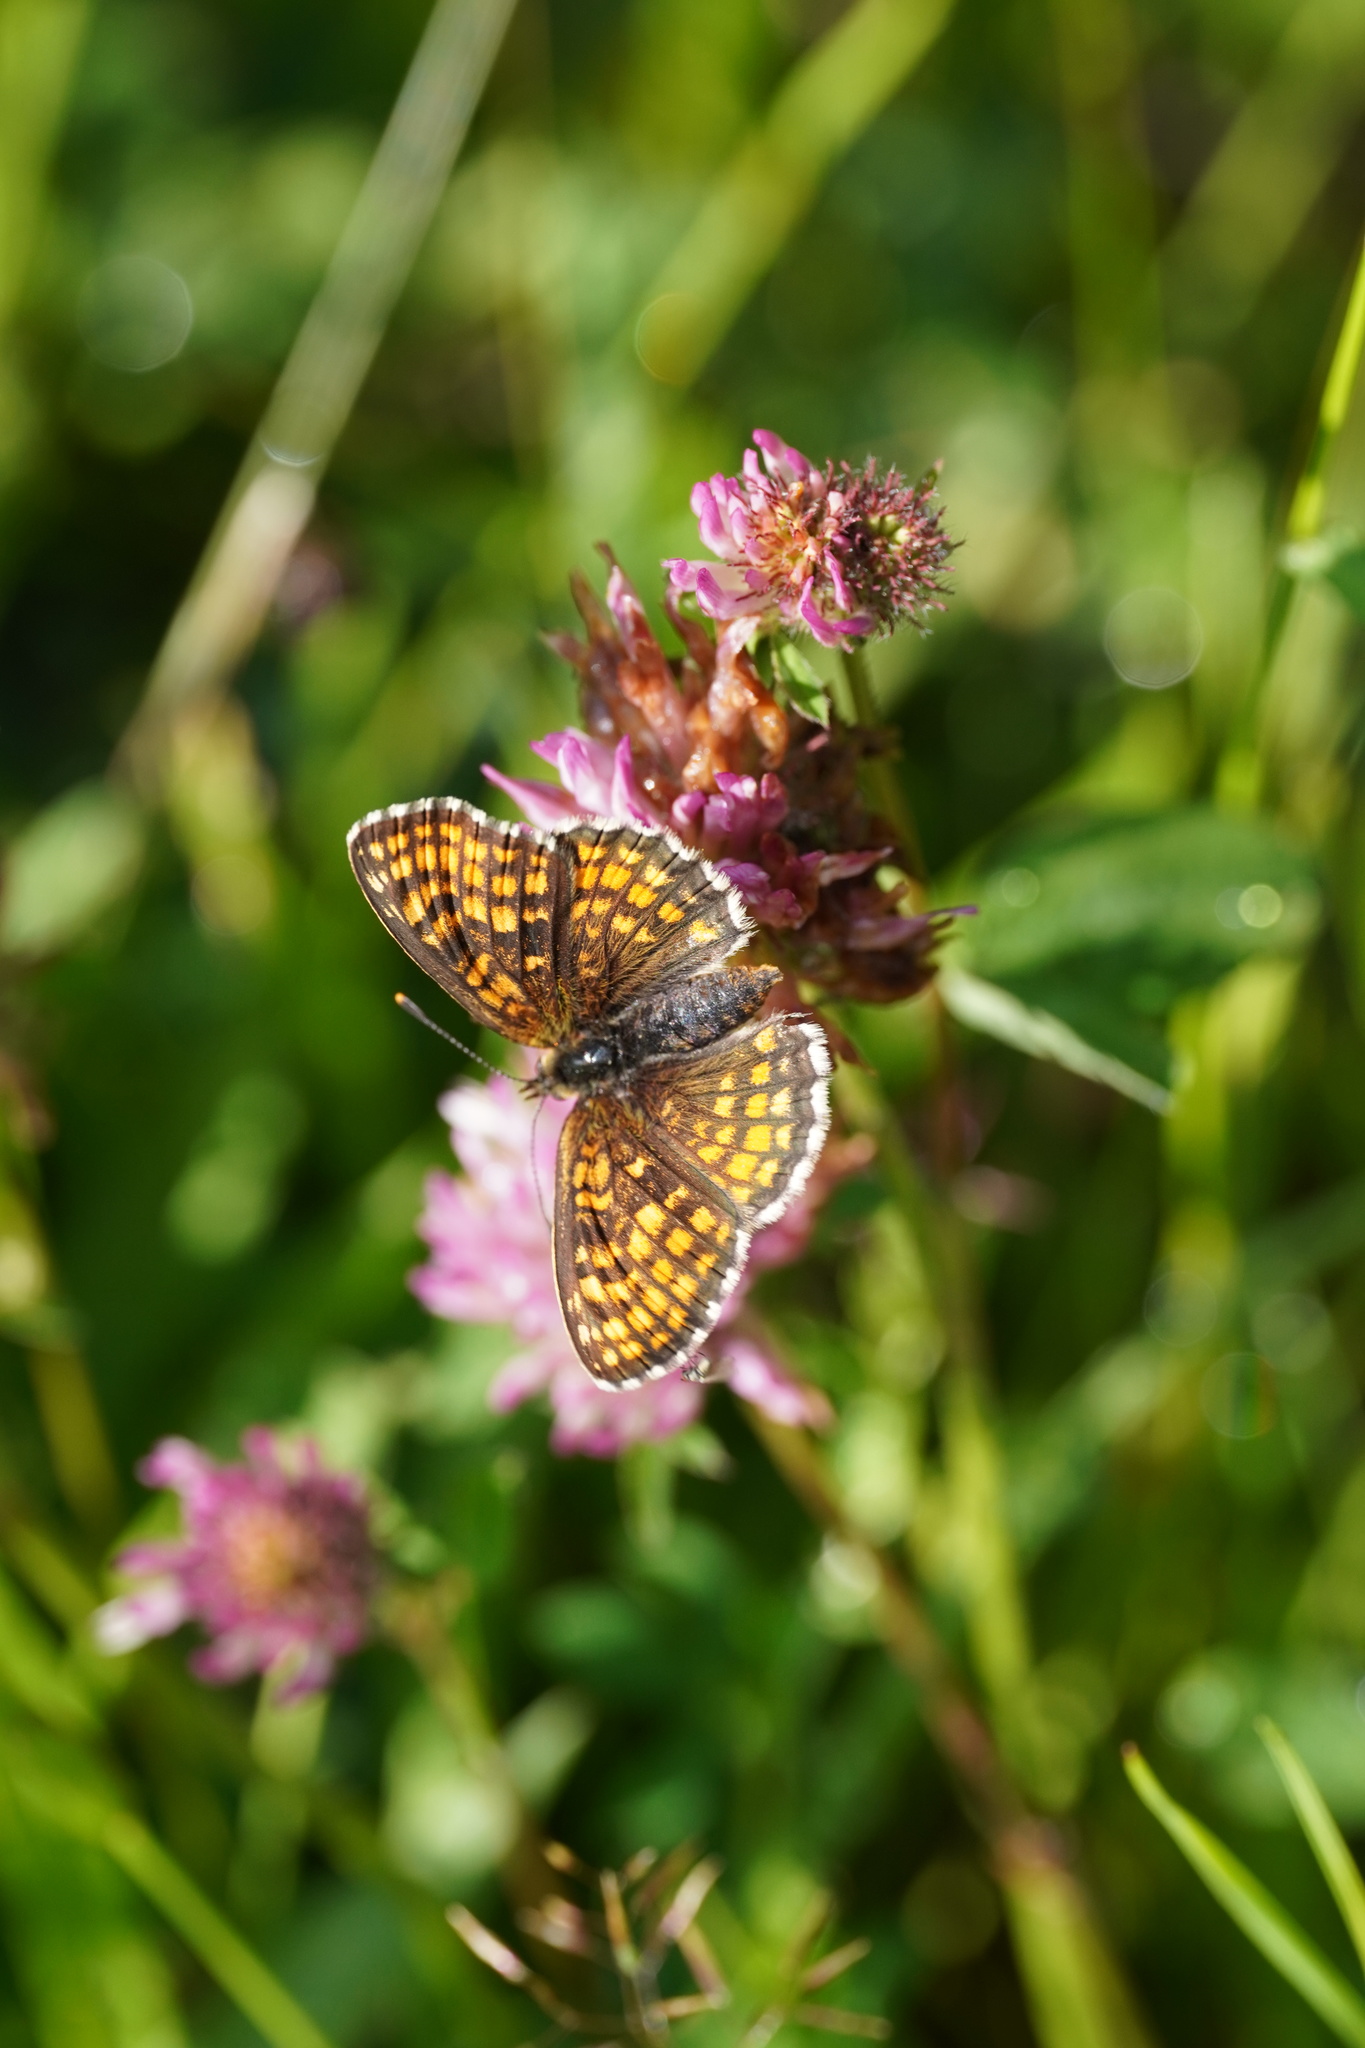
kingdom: Animalia
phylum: Arthropoda
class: Insecta
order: Lepidoptera
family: Nymphalidae
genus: Melitaea
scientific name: Melitaea athalia
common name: Heath fritillary
